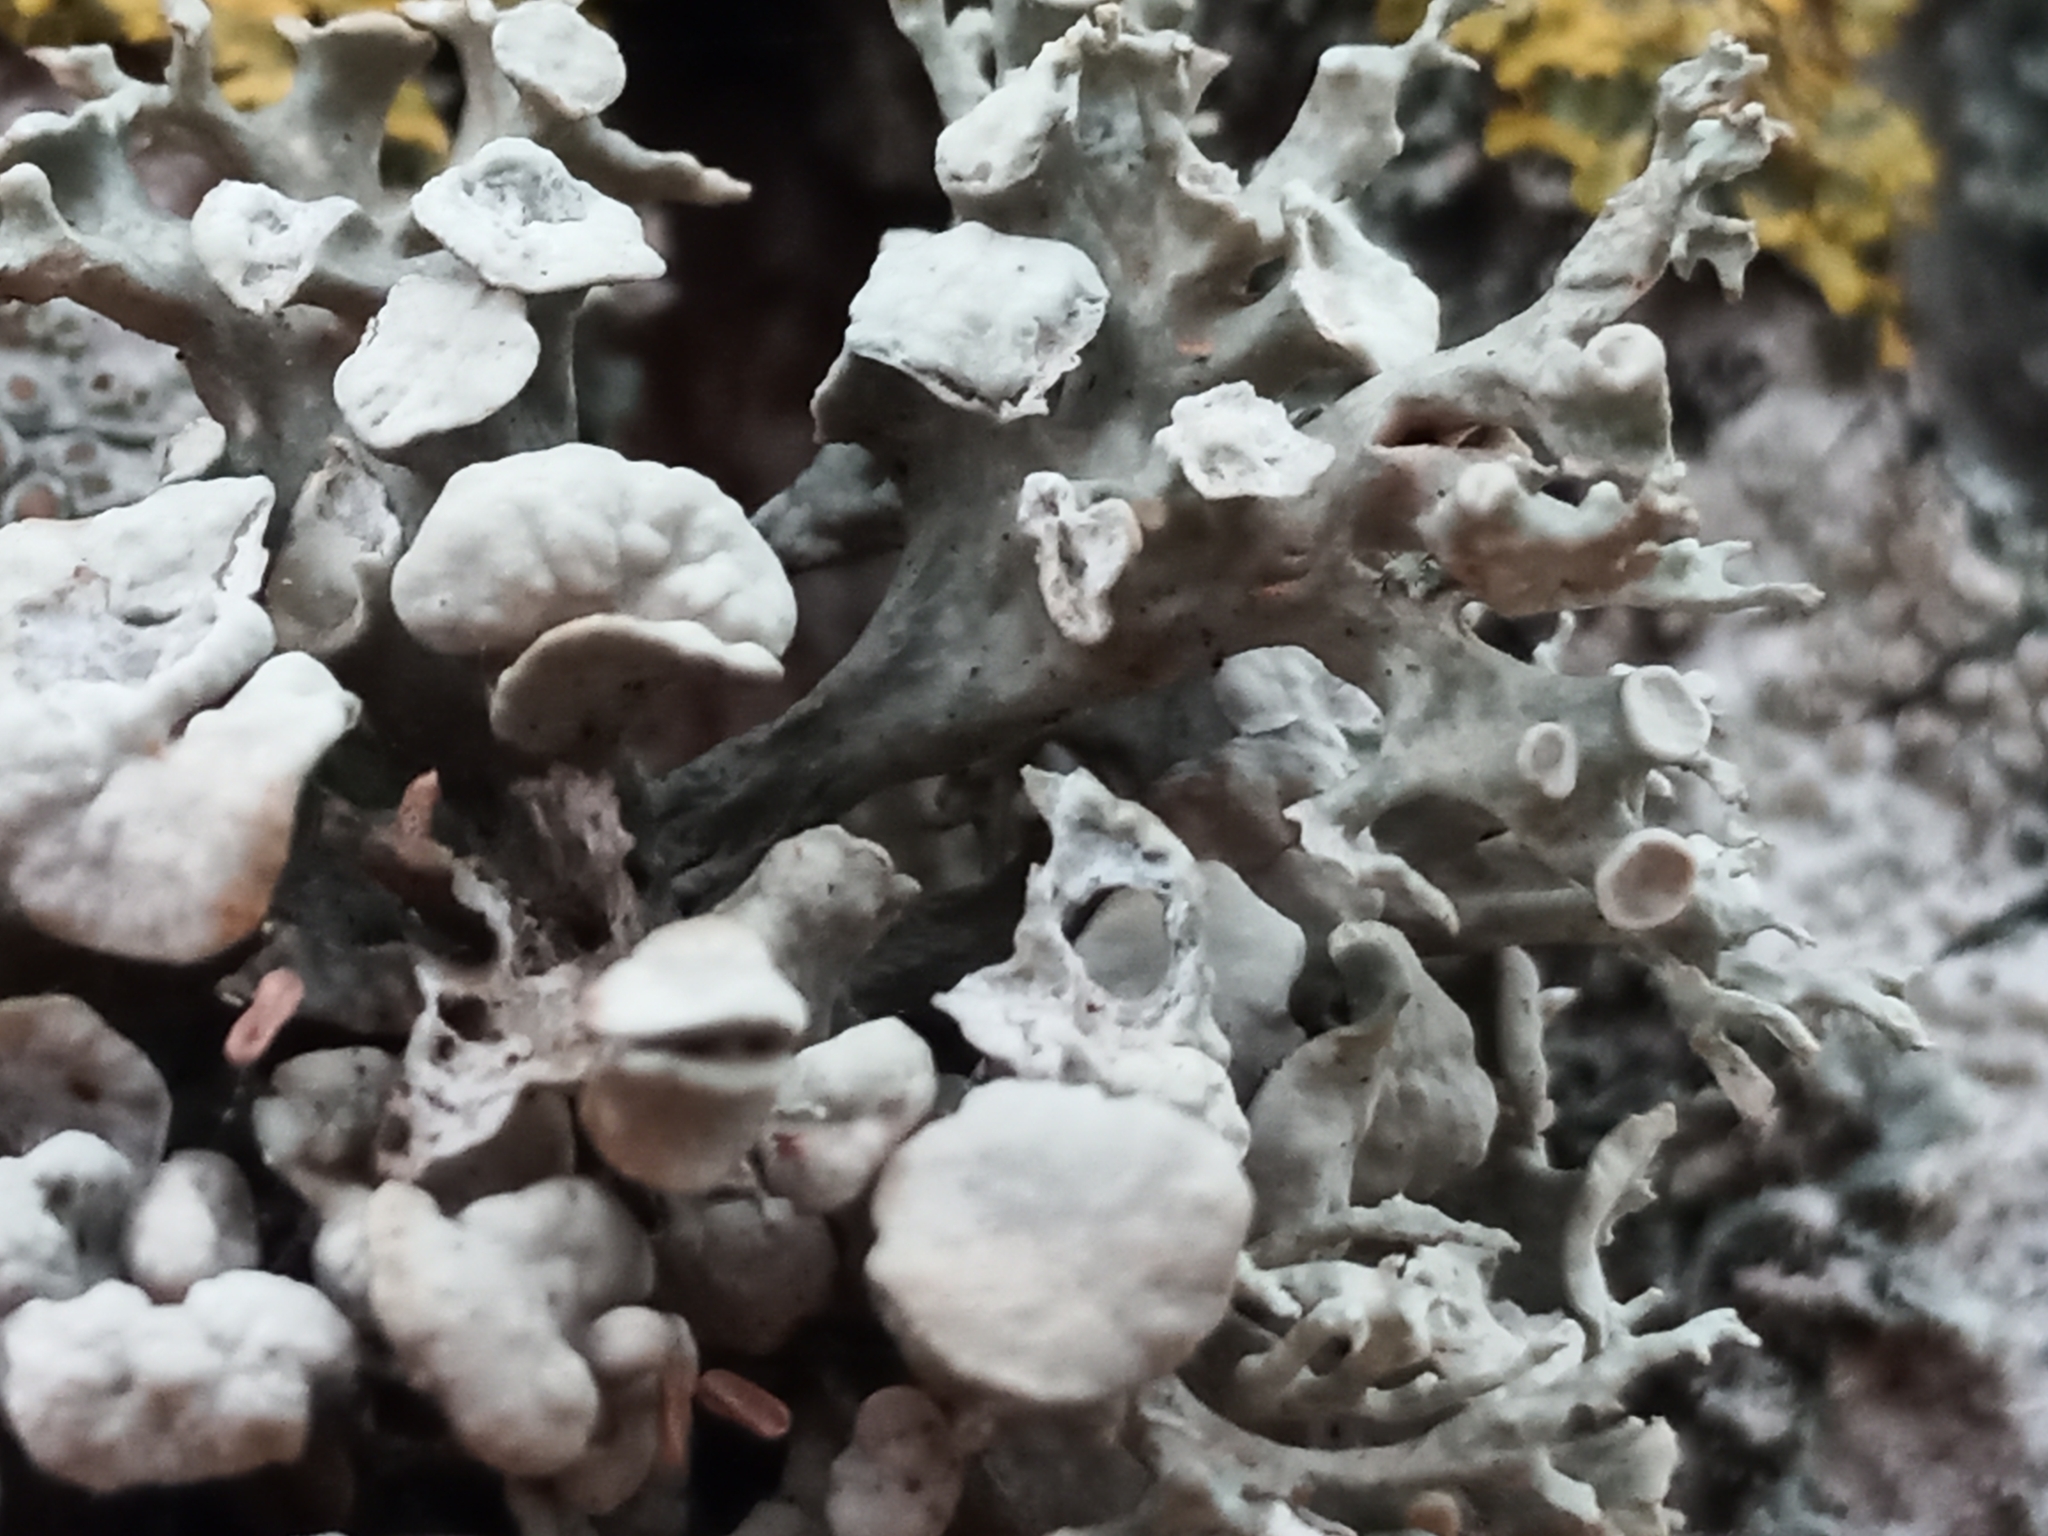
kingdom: Fungi
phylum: Ascomycota
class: Lecanoromycetes
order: Lecanorales
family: Ramalinaceae
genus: Ramalina
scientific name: Ramalina fastigiata
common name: Dotted ribbon lichen
